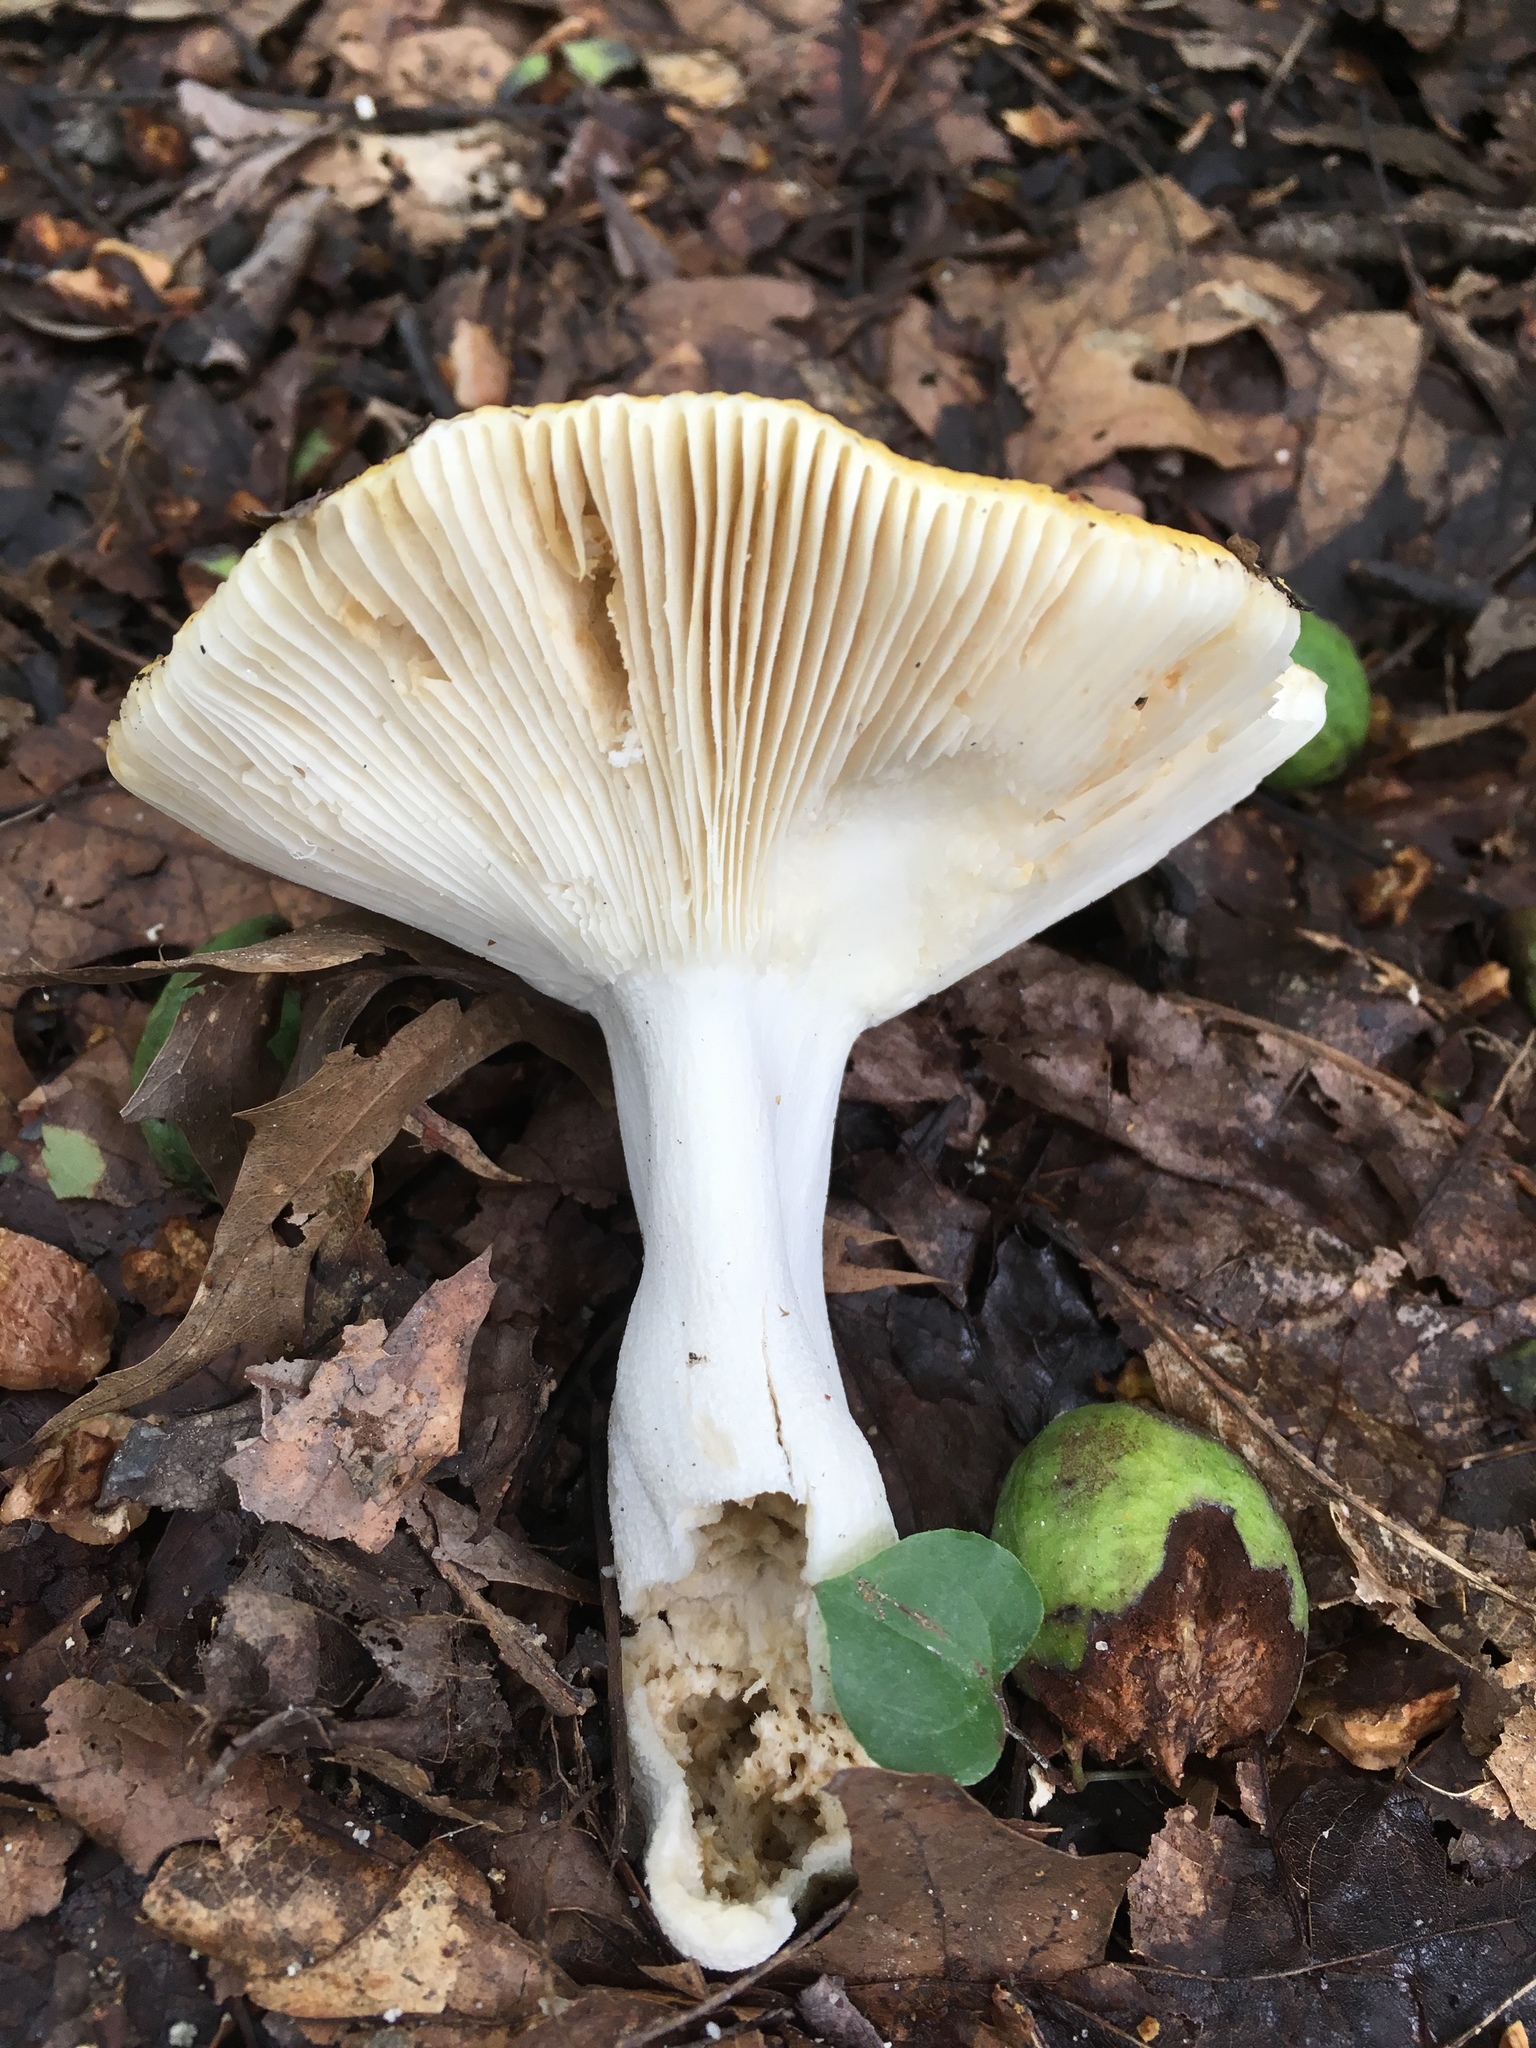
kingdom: Fungi
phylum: Basidiomycota
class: Agaricomycetes
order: Russulales
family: Russulaceae
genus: Russula
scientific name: Russula claroflava
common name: The yellow swamp brittlegill
